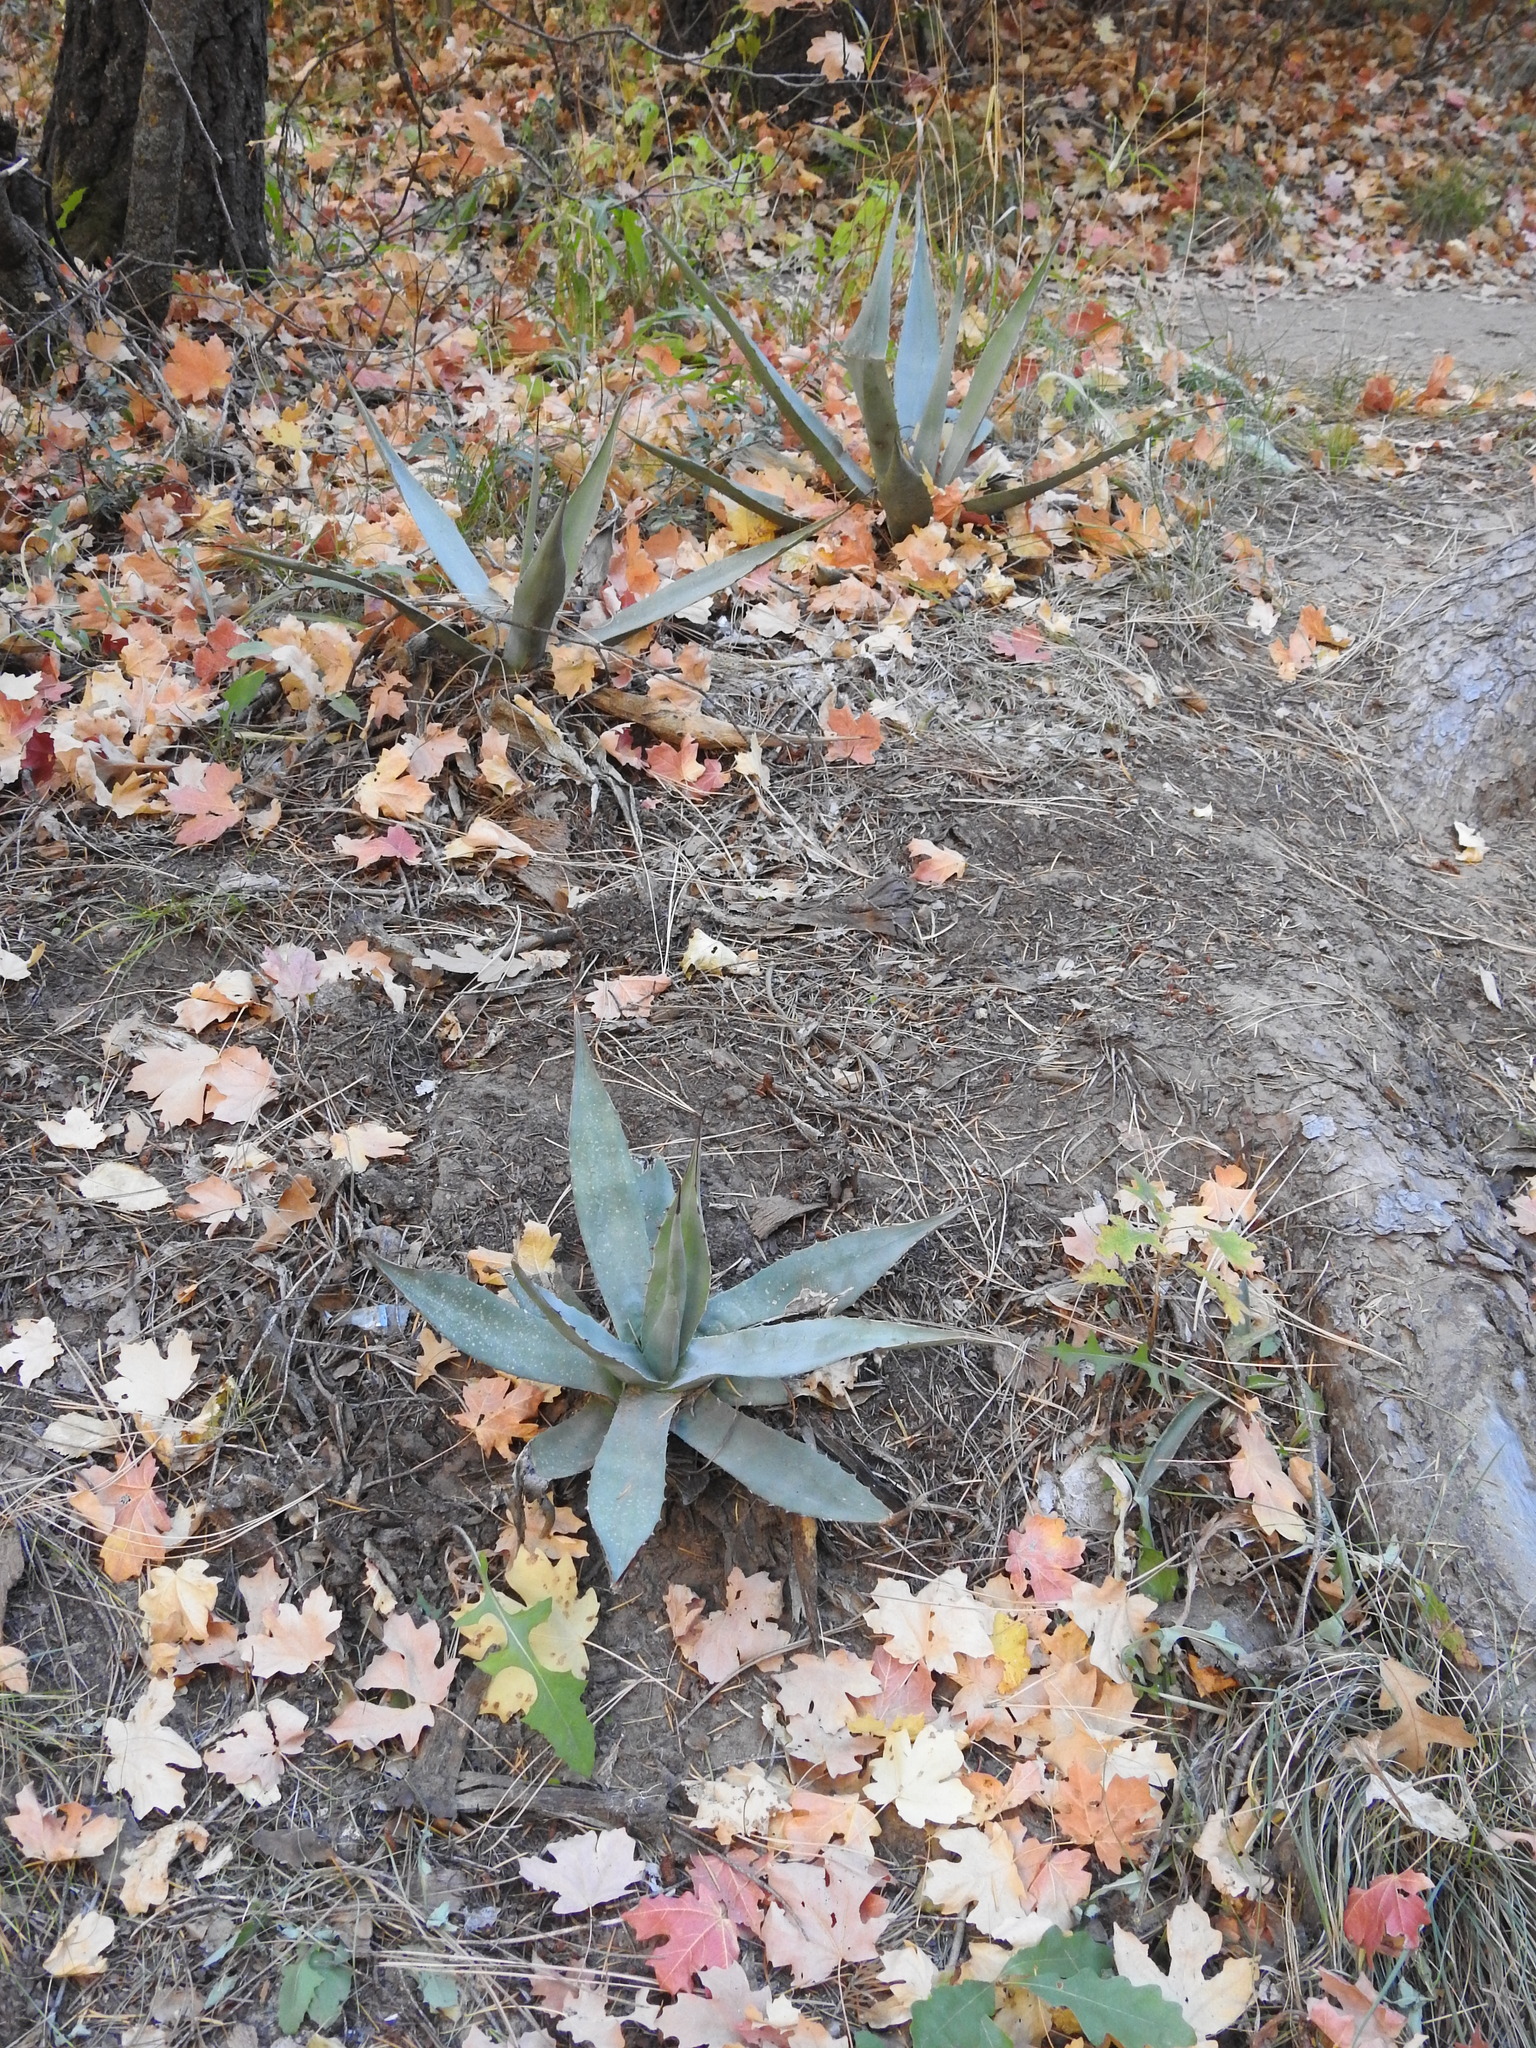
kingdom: Plantae
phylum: Tracheophyta
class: Liliopsida
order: Asparagales
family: Asparagaceae
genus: Agave
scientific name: Agave parryi
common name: Parry's agave
